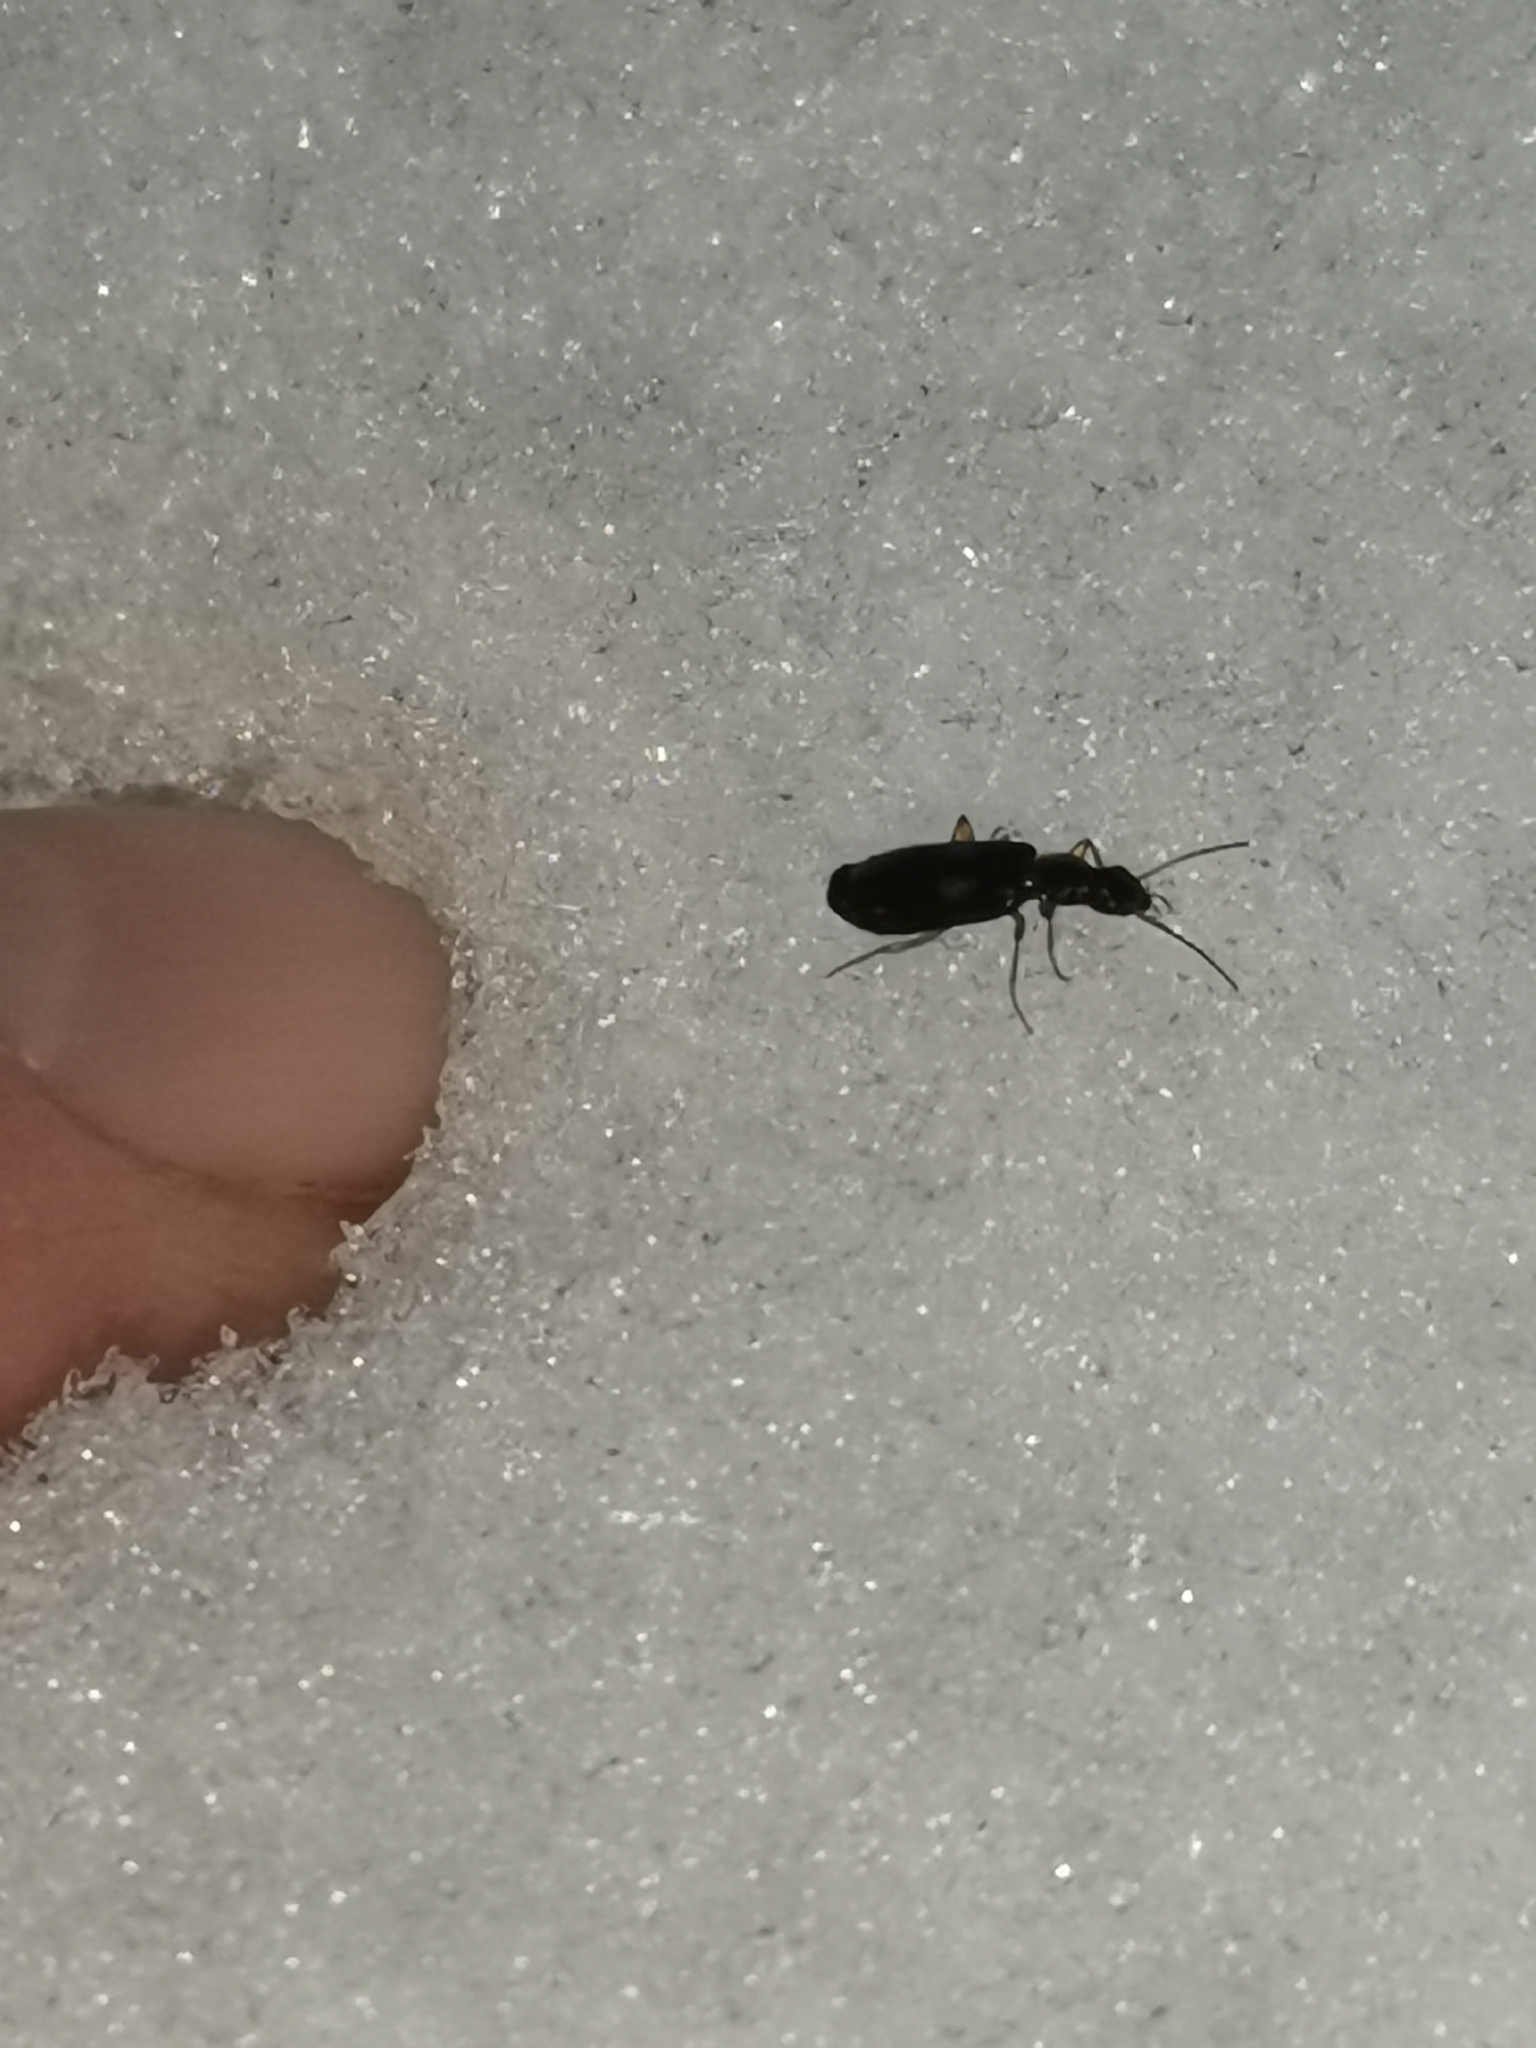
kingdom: Animalia
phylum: Arthropoda
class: Insecta
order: Coleoptera
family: Carabidae
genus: Dromius
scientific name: Dromius fenestratus
